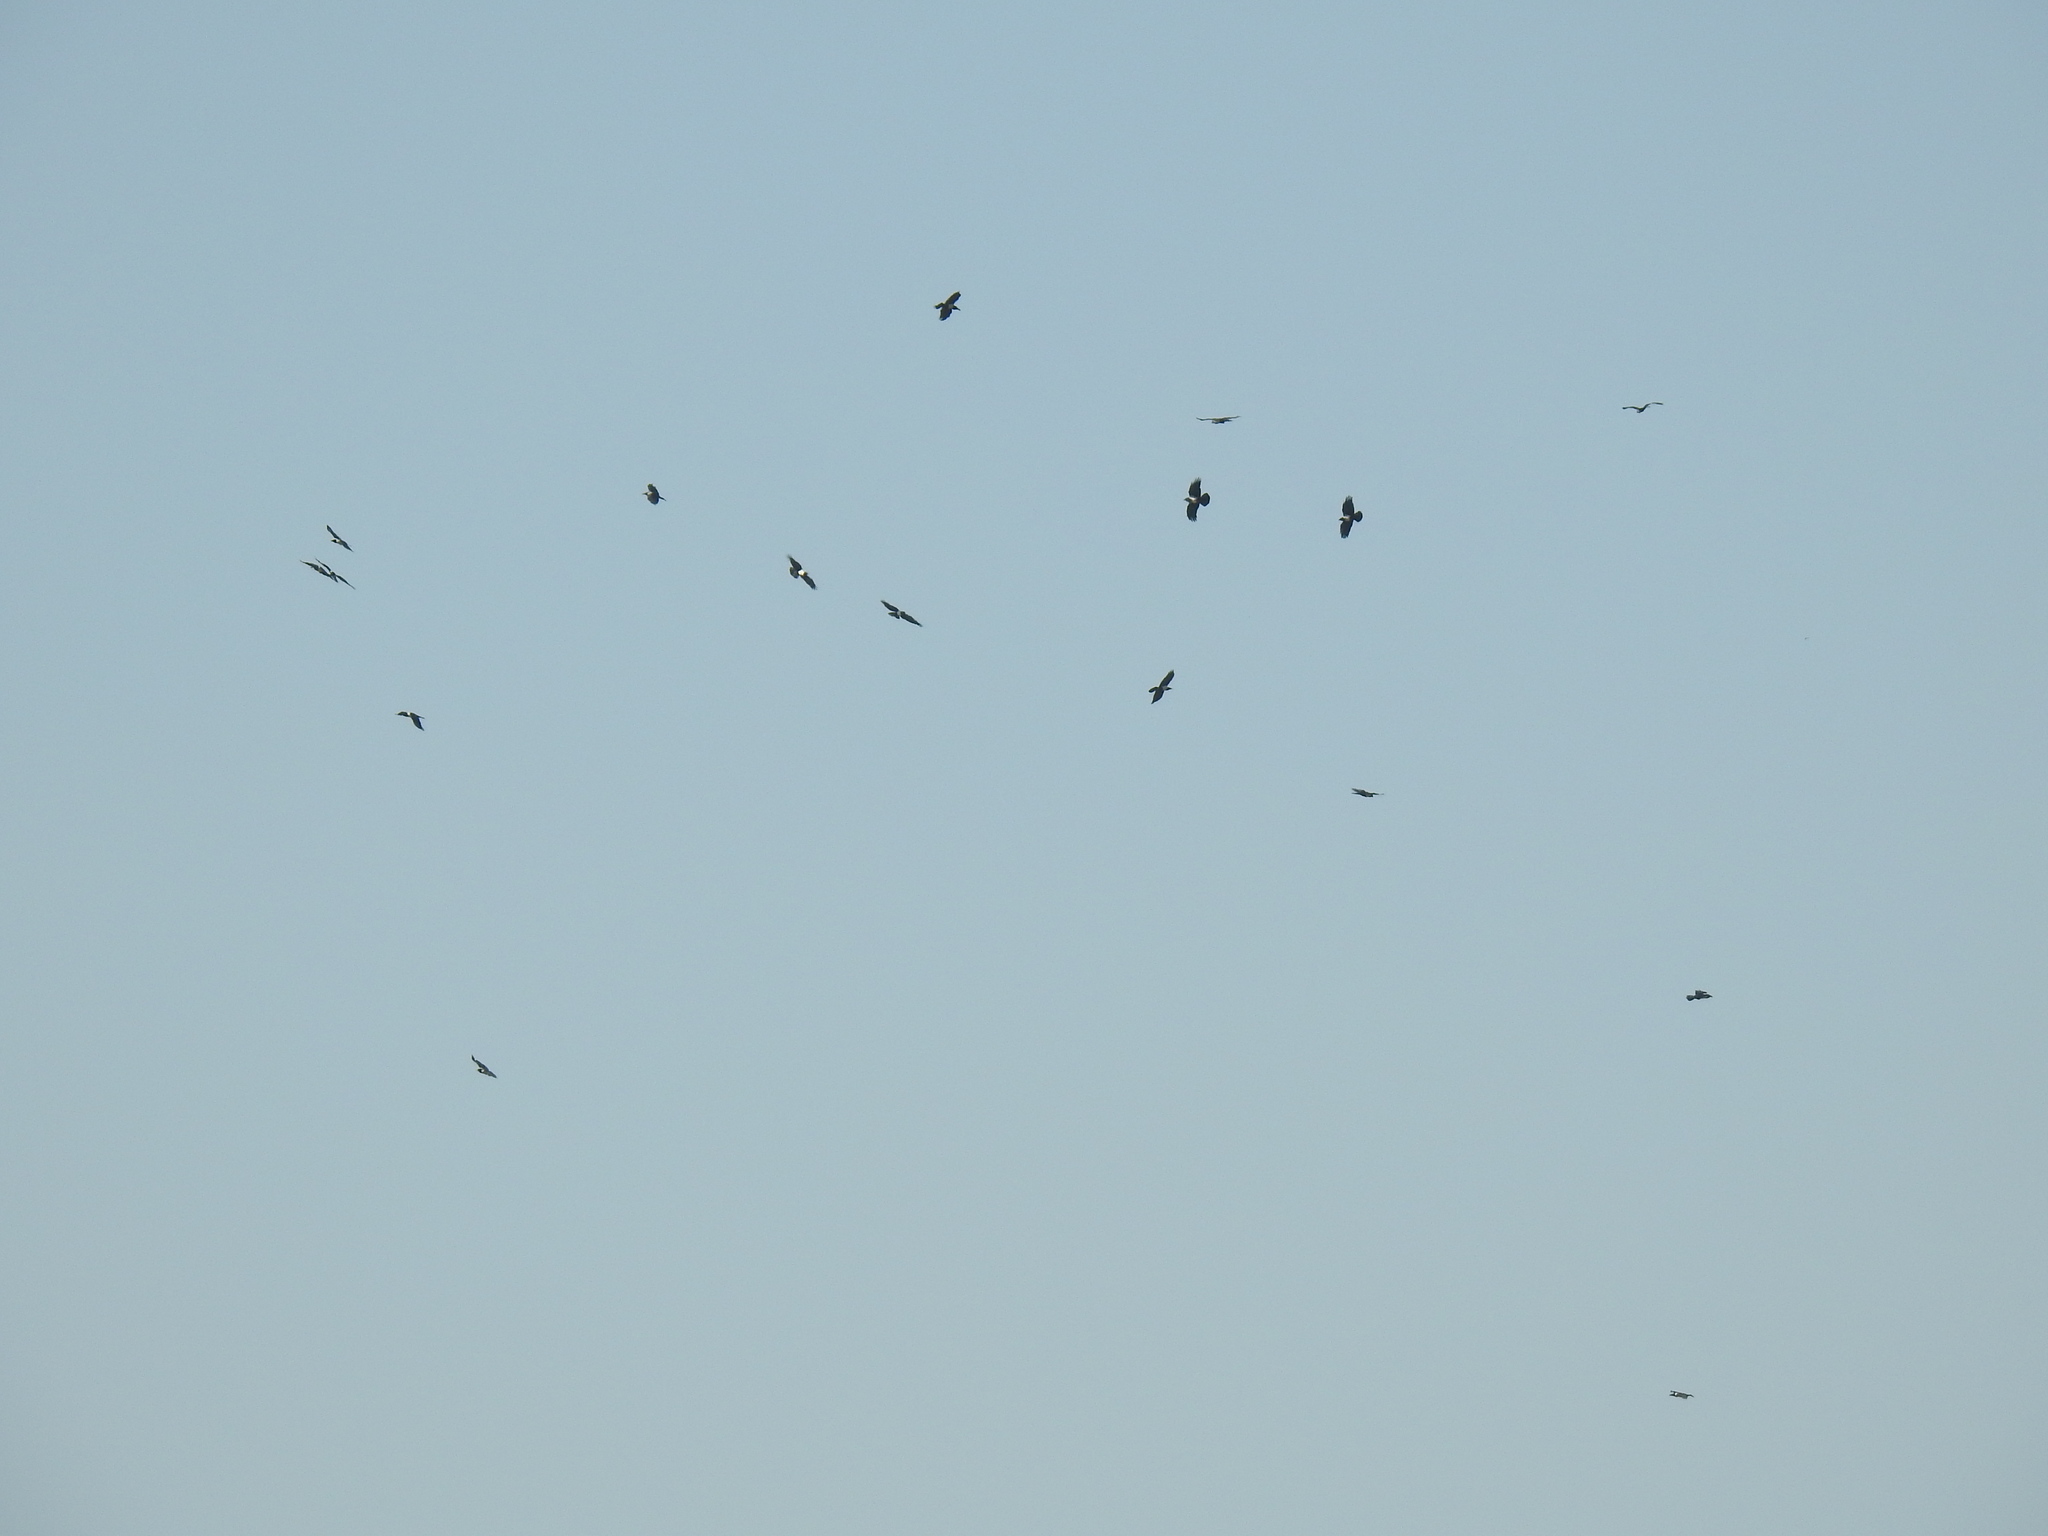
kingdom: Animalia
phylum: Chordata
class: Aves
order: Passeriformes
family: Corvidae
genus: Corvus
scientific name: Corvus albus
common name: Pied crow
